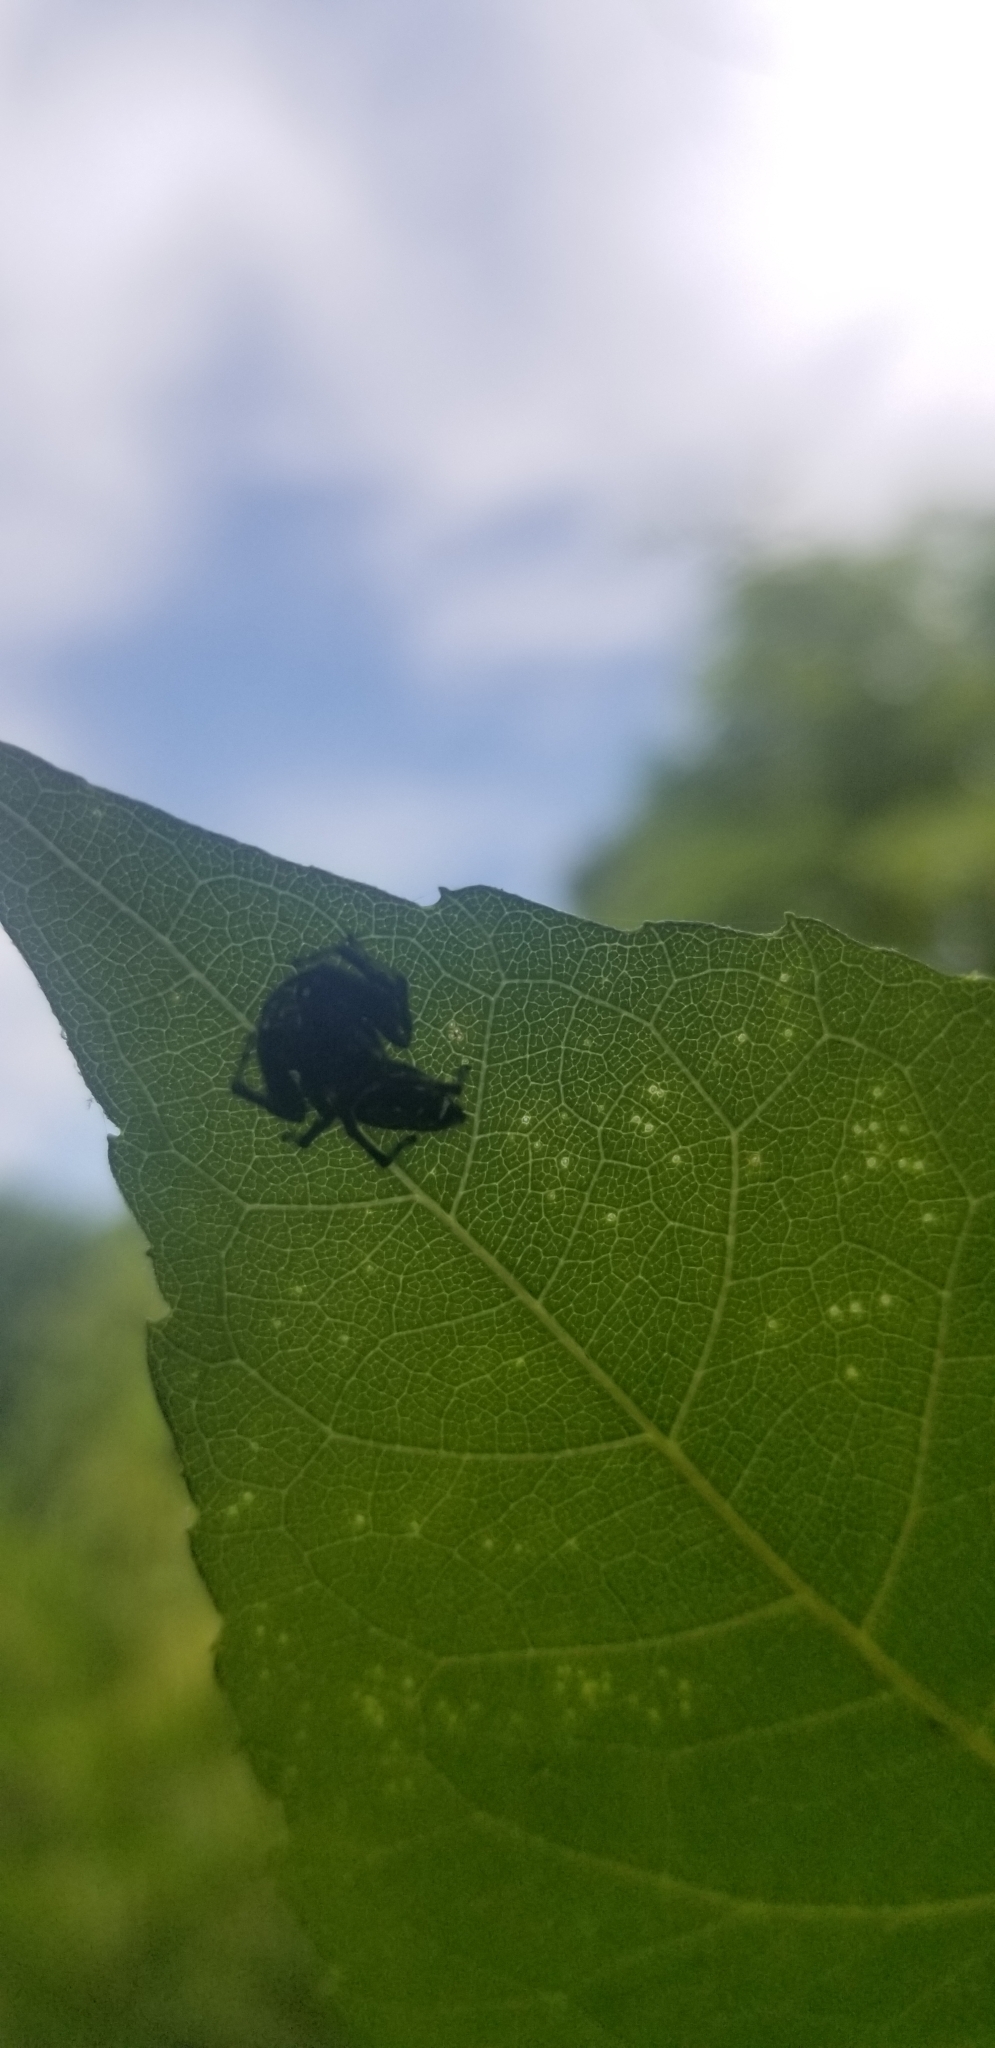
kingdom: Animalia
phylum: Arthropoda
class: Arachnida
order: Araneae
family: Salticidae
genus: Paraphidippus
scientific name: Paraphidippus aurantius
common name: Jumping spiders
